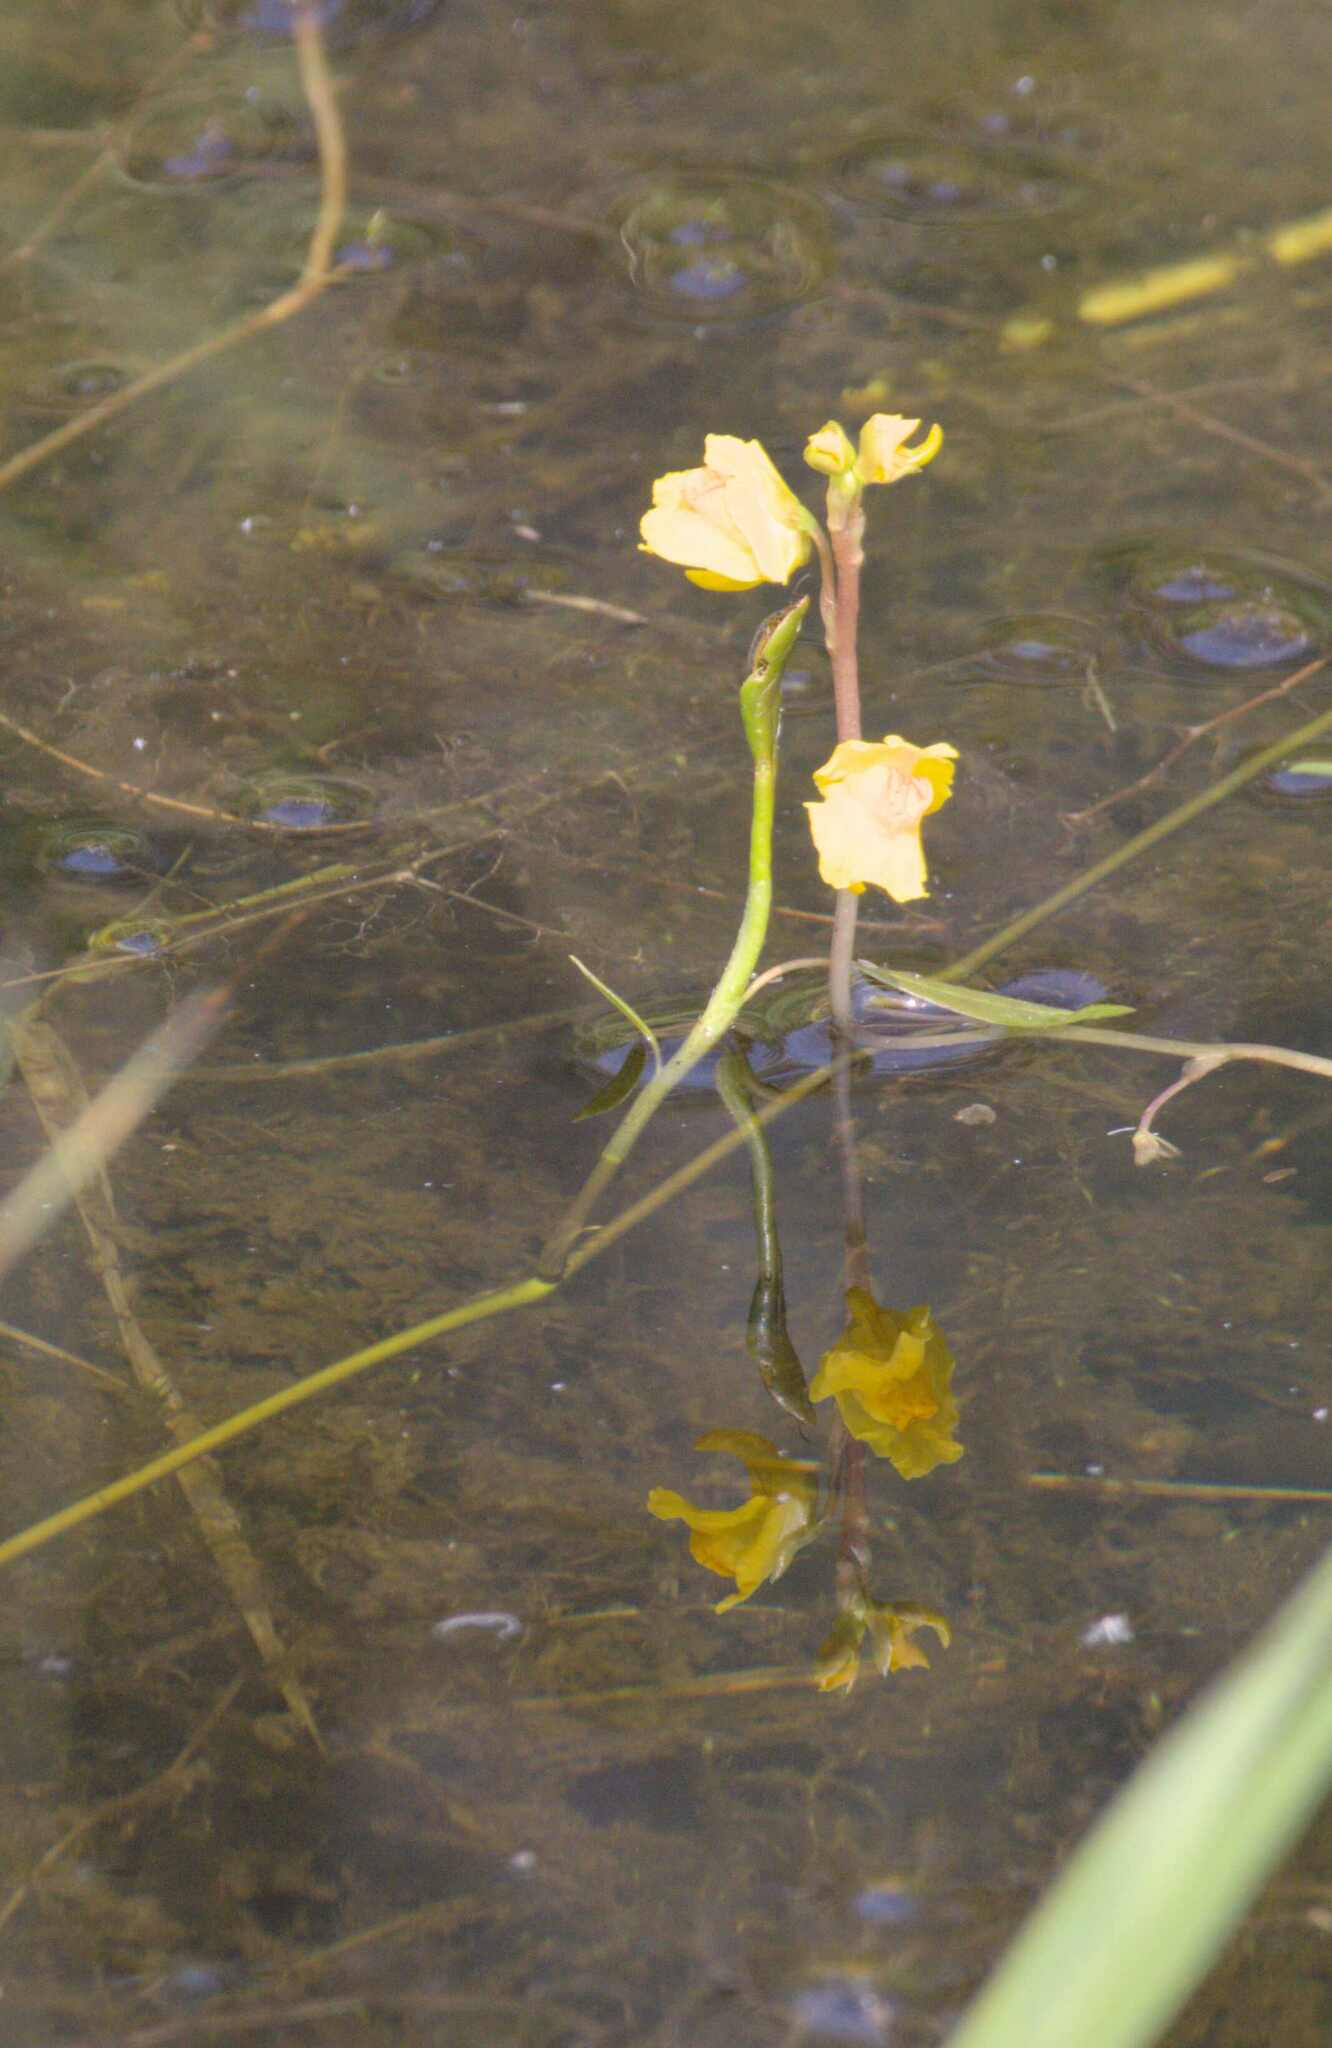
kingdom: Plantae
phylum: Tracheophyta
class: Magnoliopsida
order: Lamiales
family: Lentibulariaceae
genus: Utricularia
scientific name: Utricularia macrorhiza
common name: Common bladderwort
